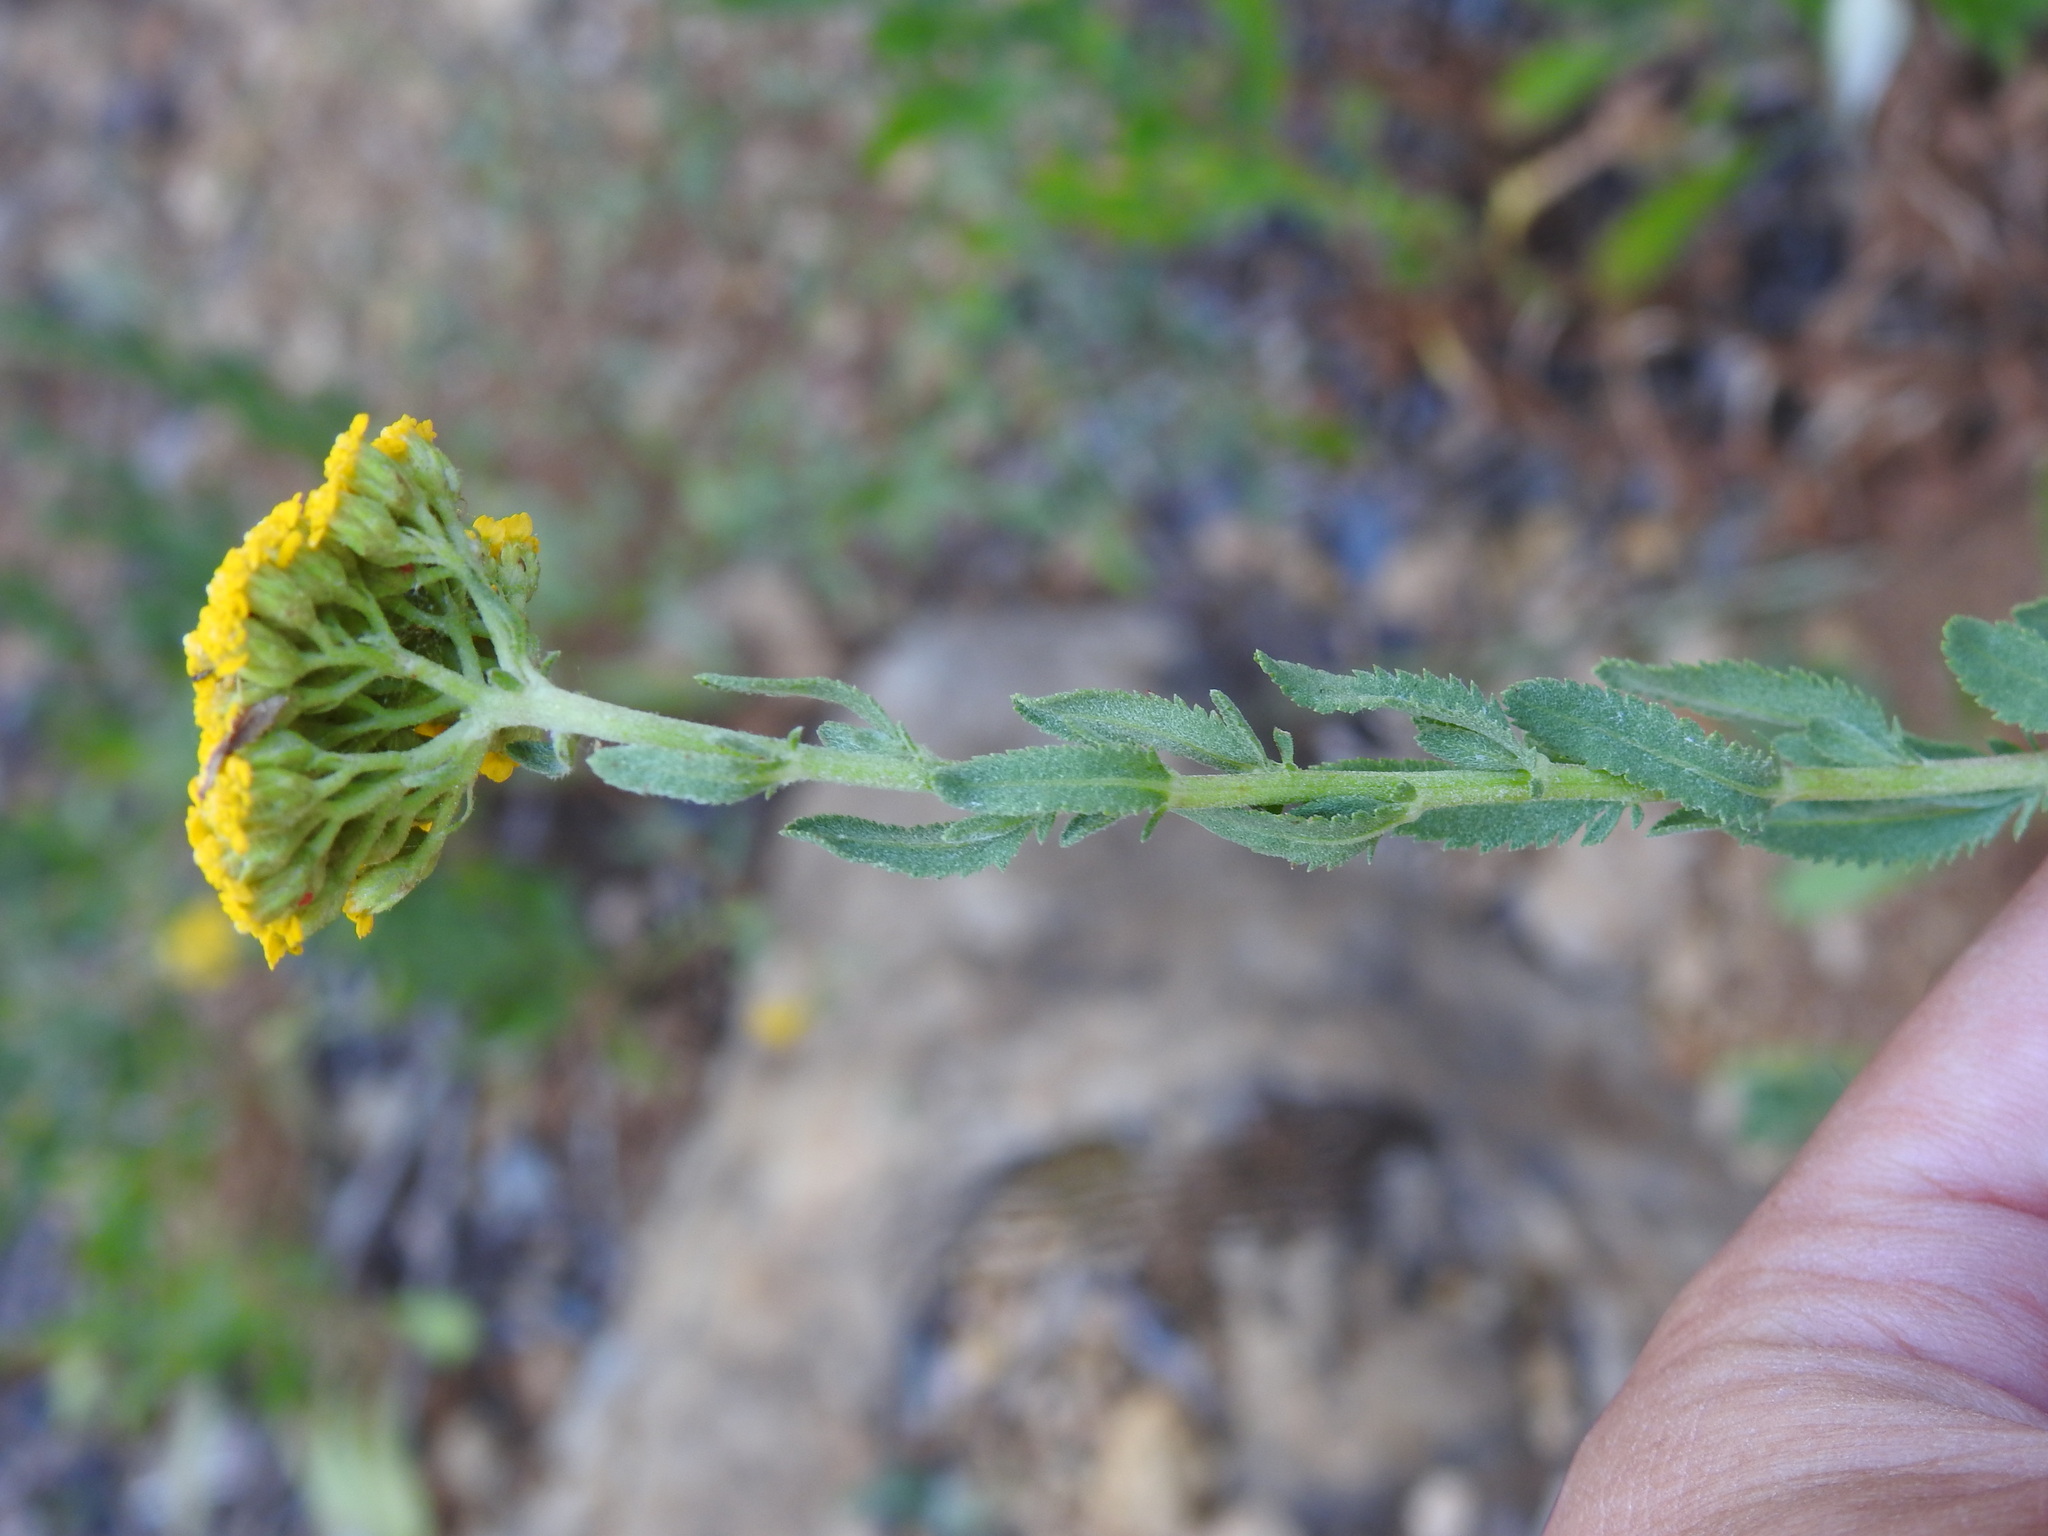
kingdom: Plantae
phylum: Tracheophyta
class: Magnoliopsida
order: Asterales
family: Asteraceae
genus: Achillea
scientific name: Achillea ageratum
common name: Sweet-nancy
